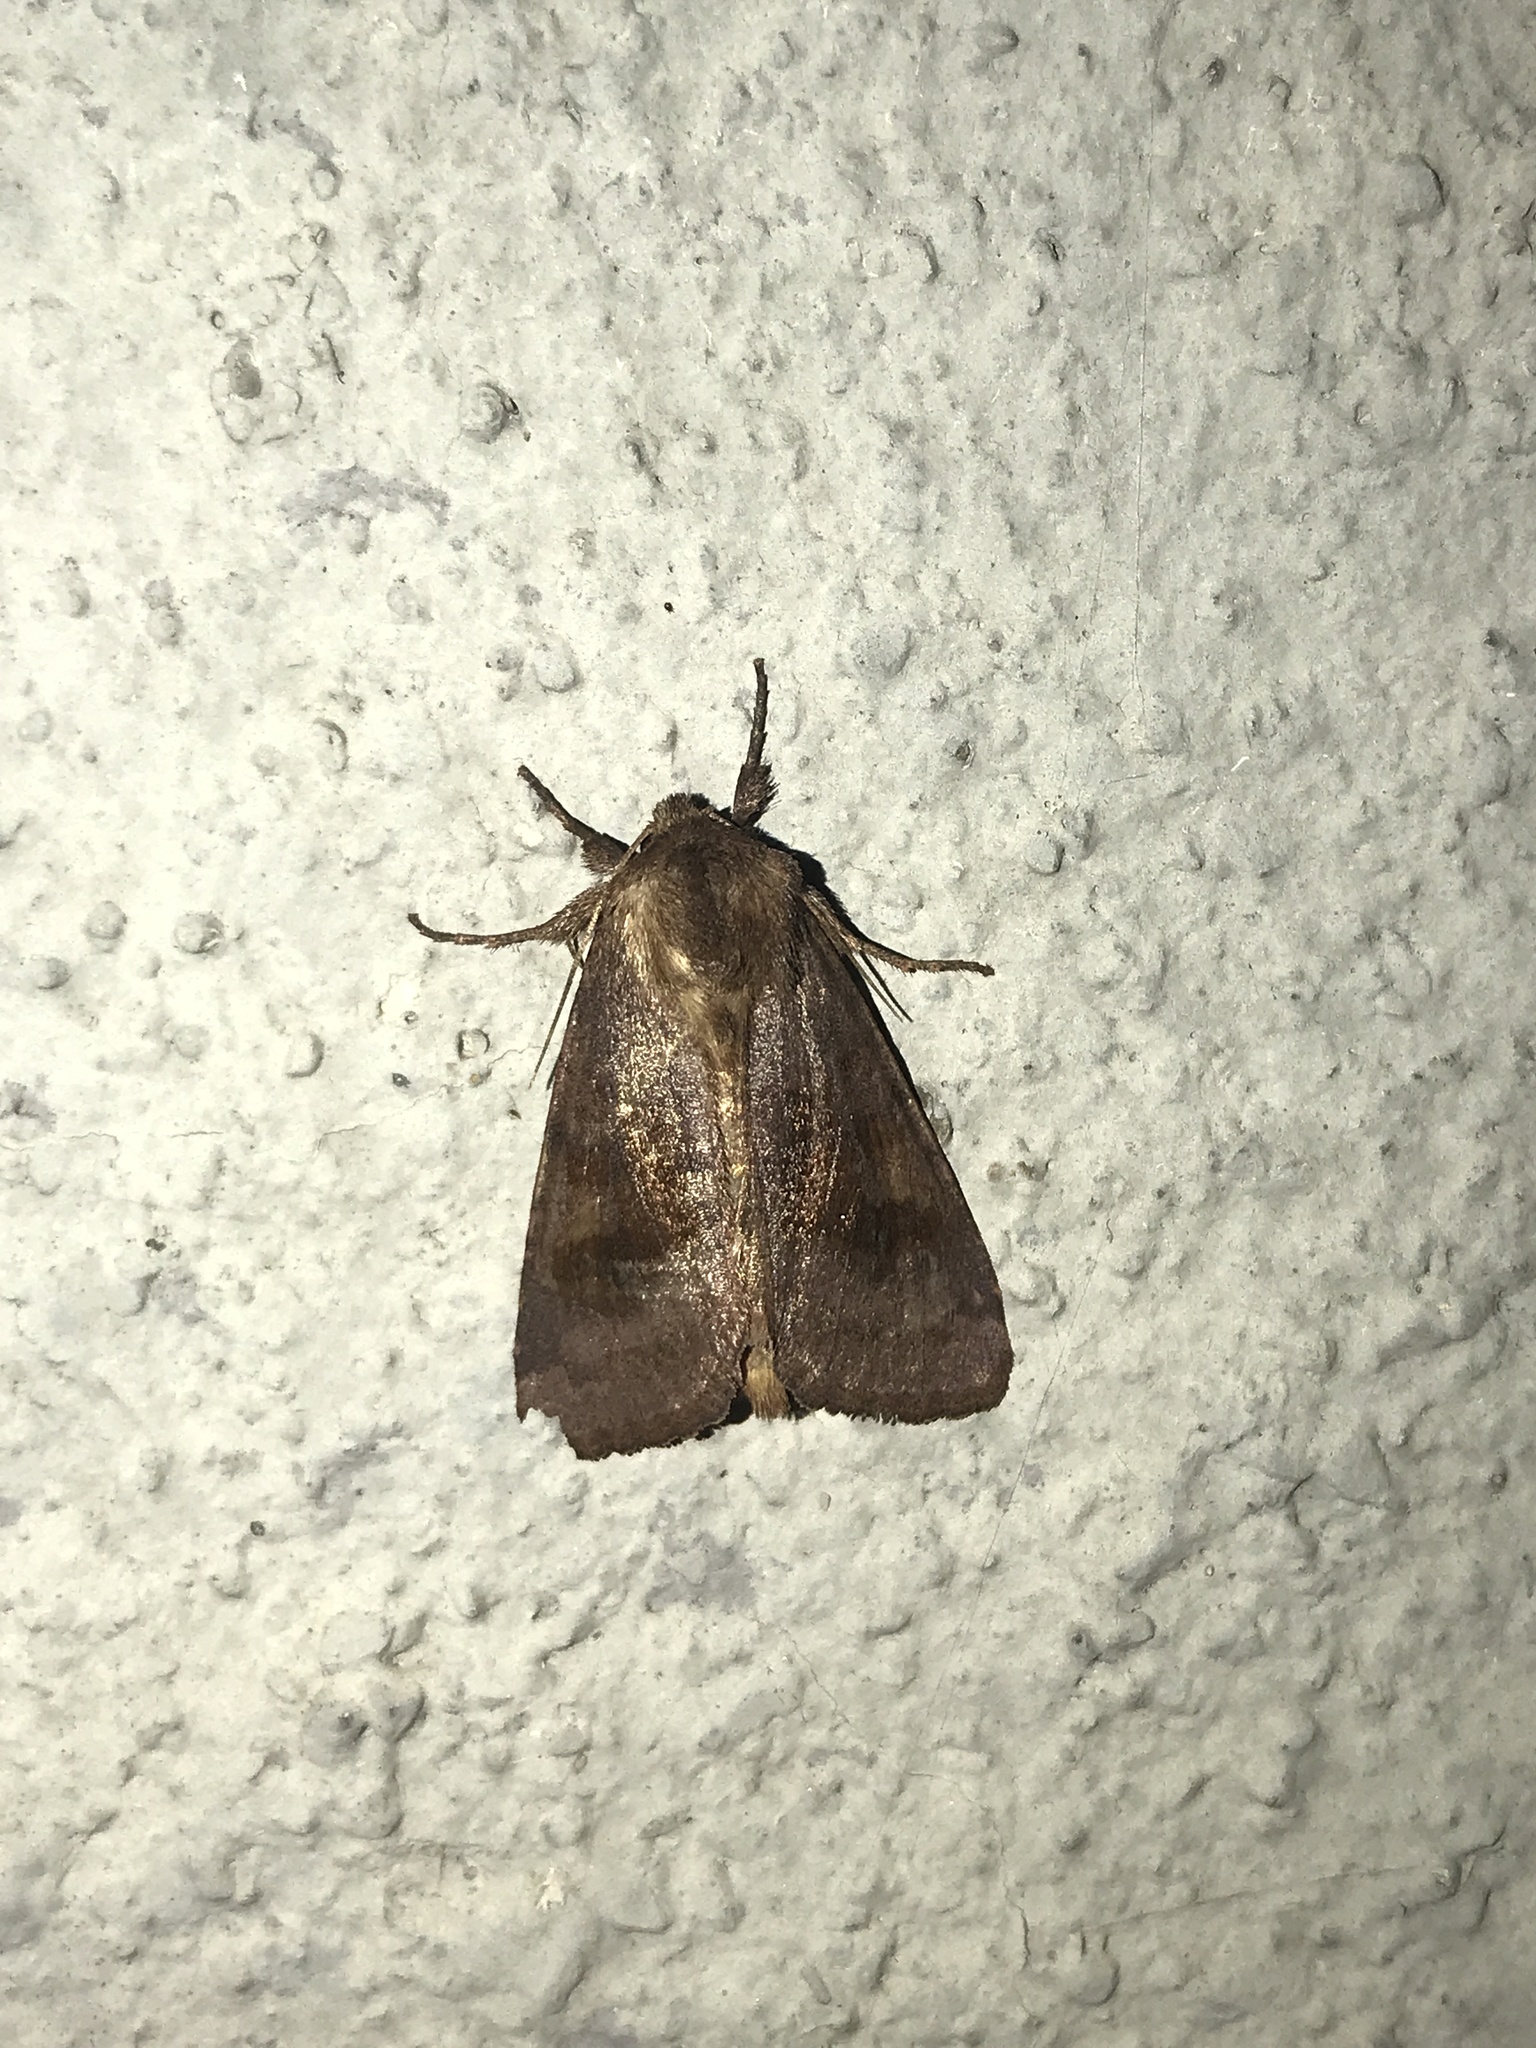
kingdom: Animalia
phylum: Arthropoda
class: Insecta
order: Lepidoptera
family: Noctuidae
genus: Nephelodes
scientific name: Nephelodes minians
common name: Bronzed cutworm
